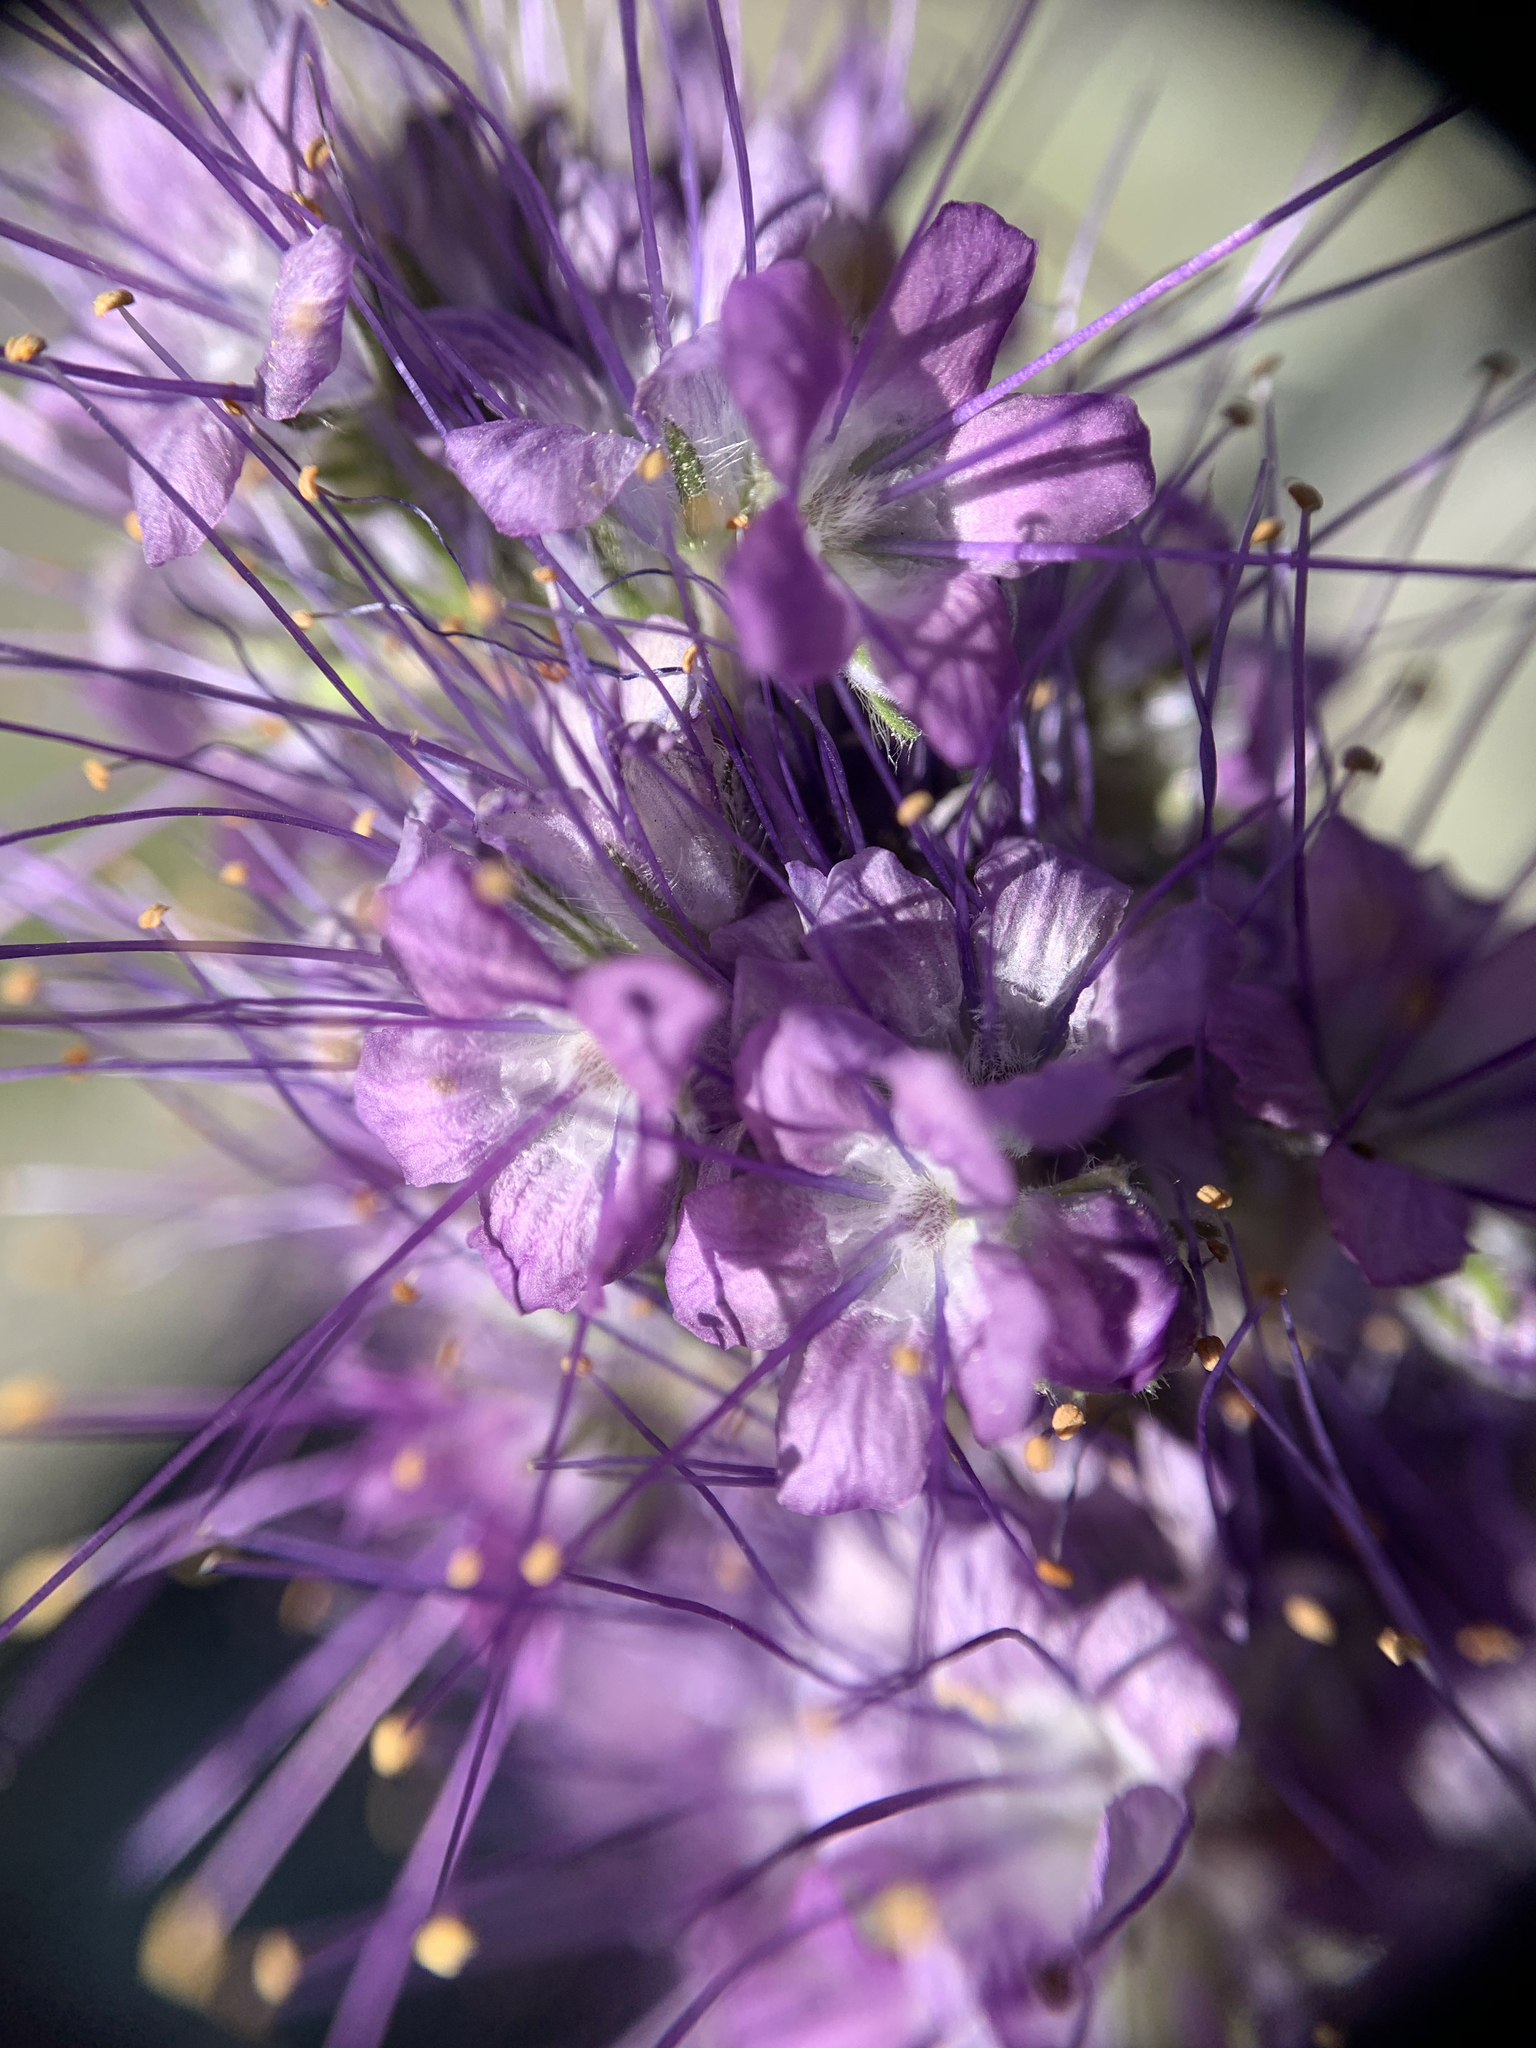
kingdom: Plantae
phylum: Tracheophyta
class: Magnoliopsida
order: Boraginales
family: Hydrophyllaceae
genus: Phacelia
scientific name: Phacelia sericea
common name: Silky phacelia
